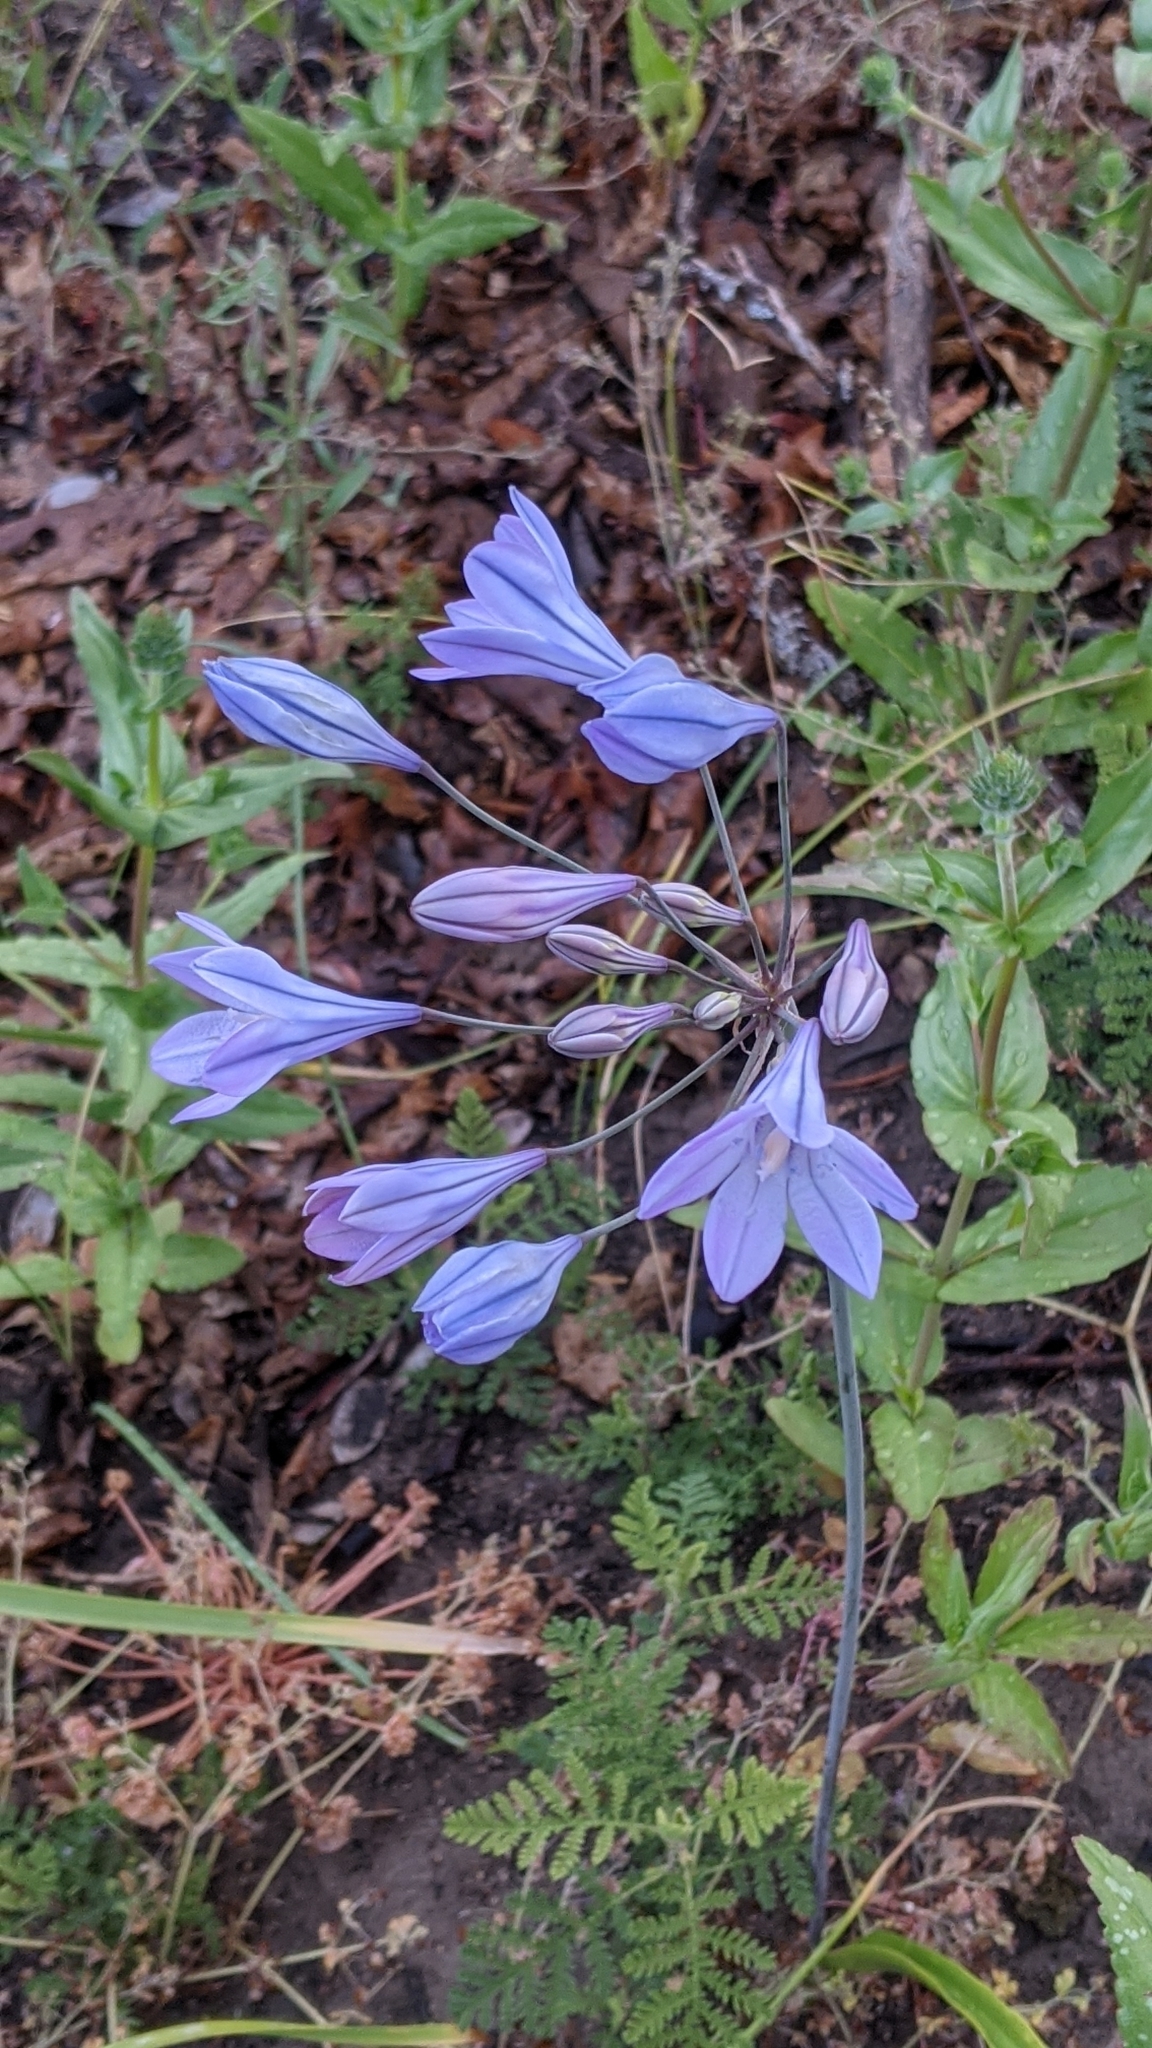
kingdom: Plantae
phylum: Tracheophyta
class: Liliopsida
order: Asparagales
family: Asparagaceae
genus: Triteleia
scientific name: Triteleia laxa
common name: Triplet-lily
